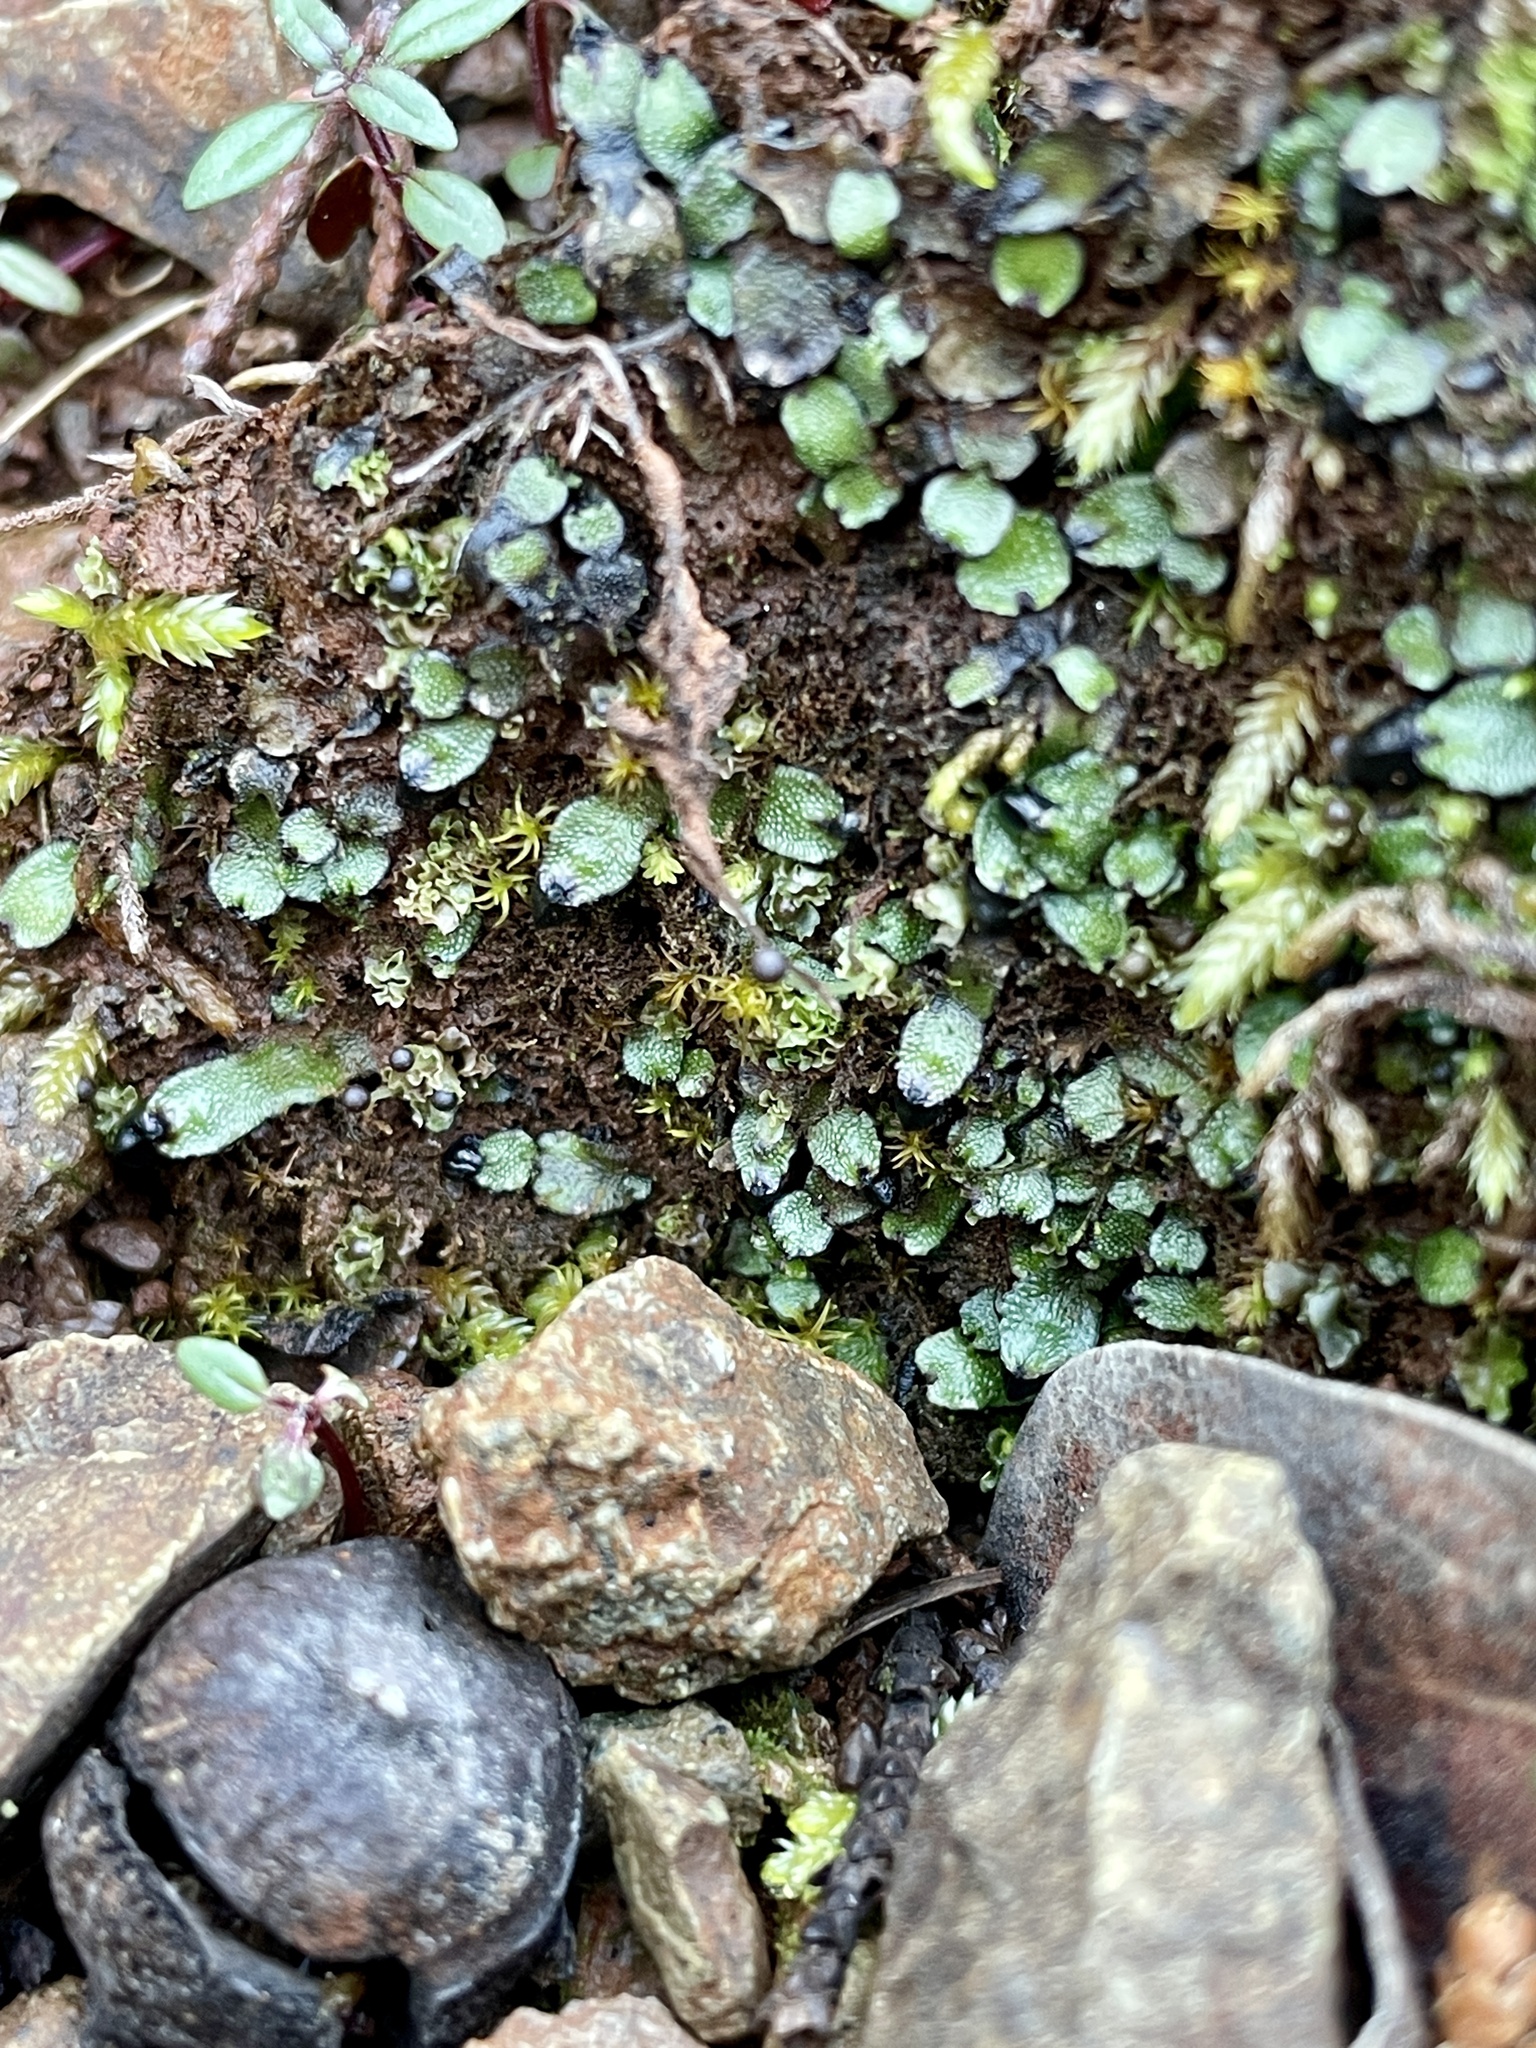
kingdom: Plantae
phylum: Marchantiophyta
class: Marchantiopsida
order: Marchantiales
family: Targioniaceae
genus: Targionia
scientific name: Targionia hypophylla
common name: Orobus-seed liverwort
